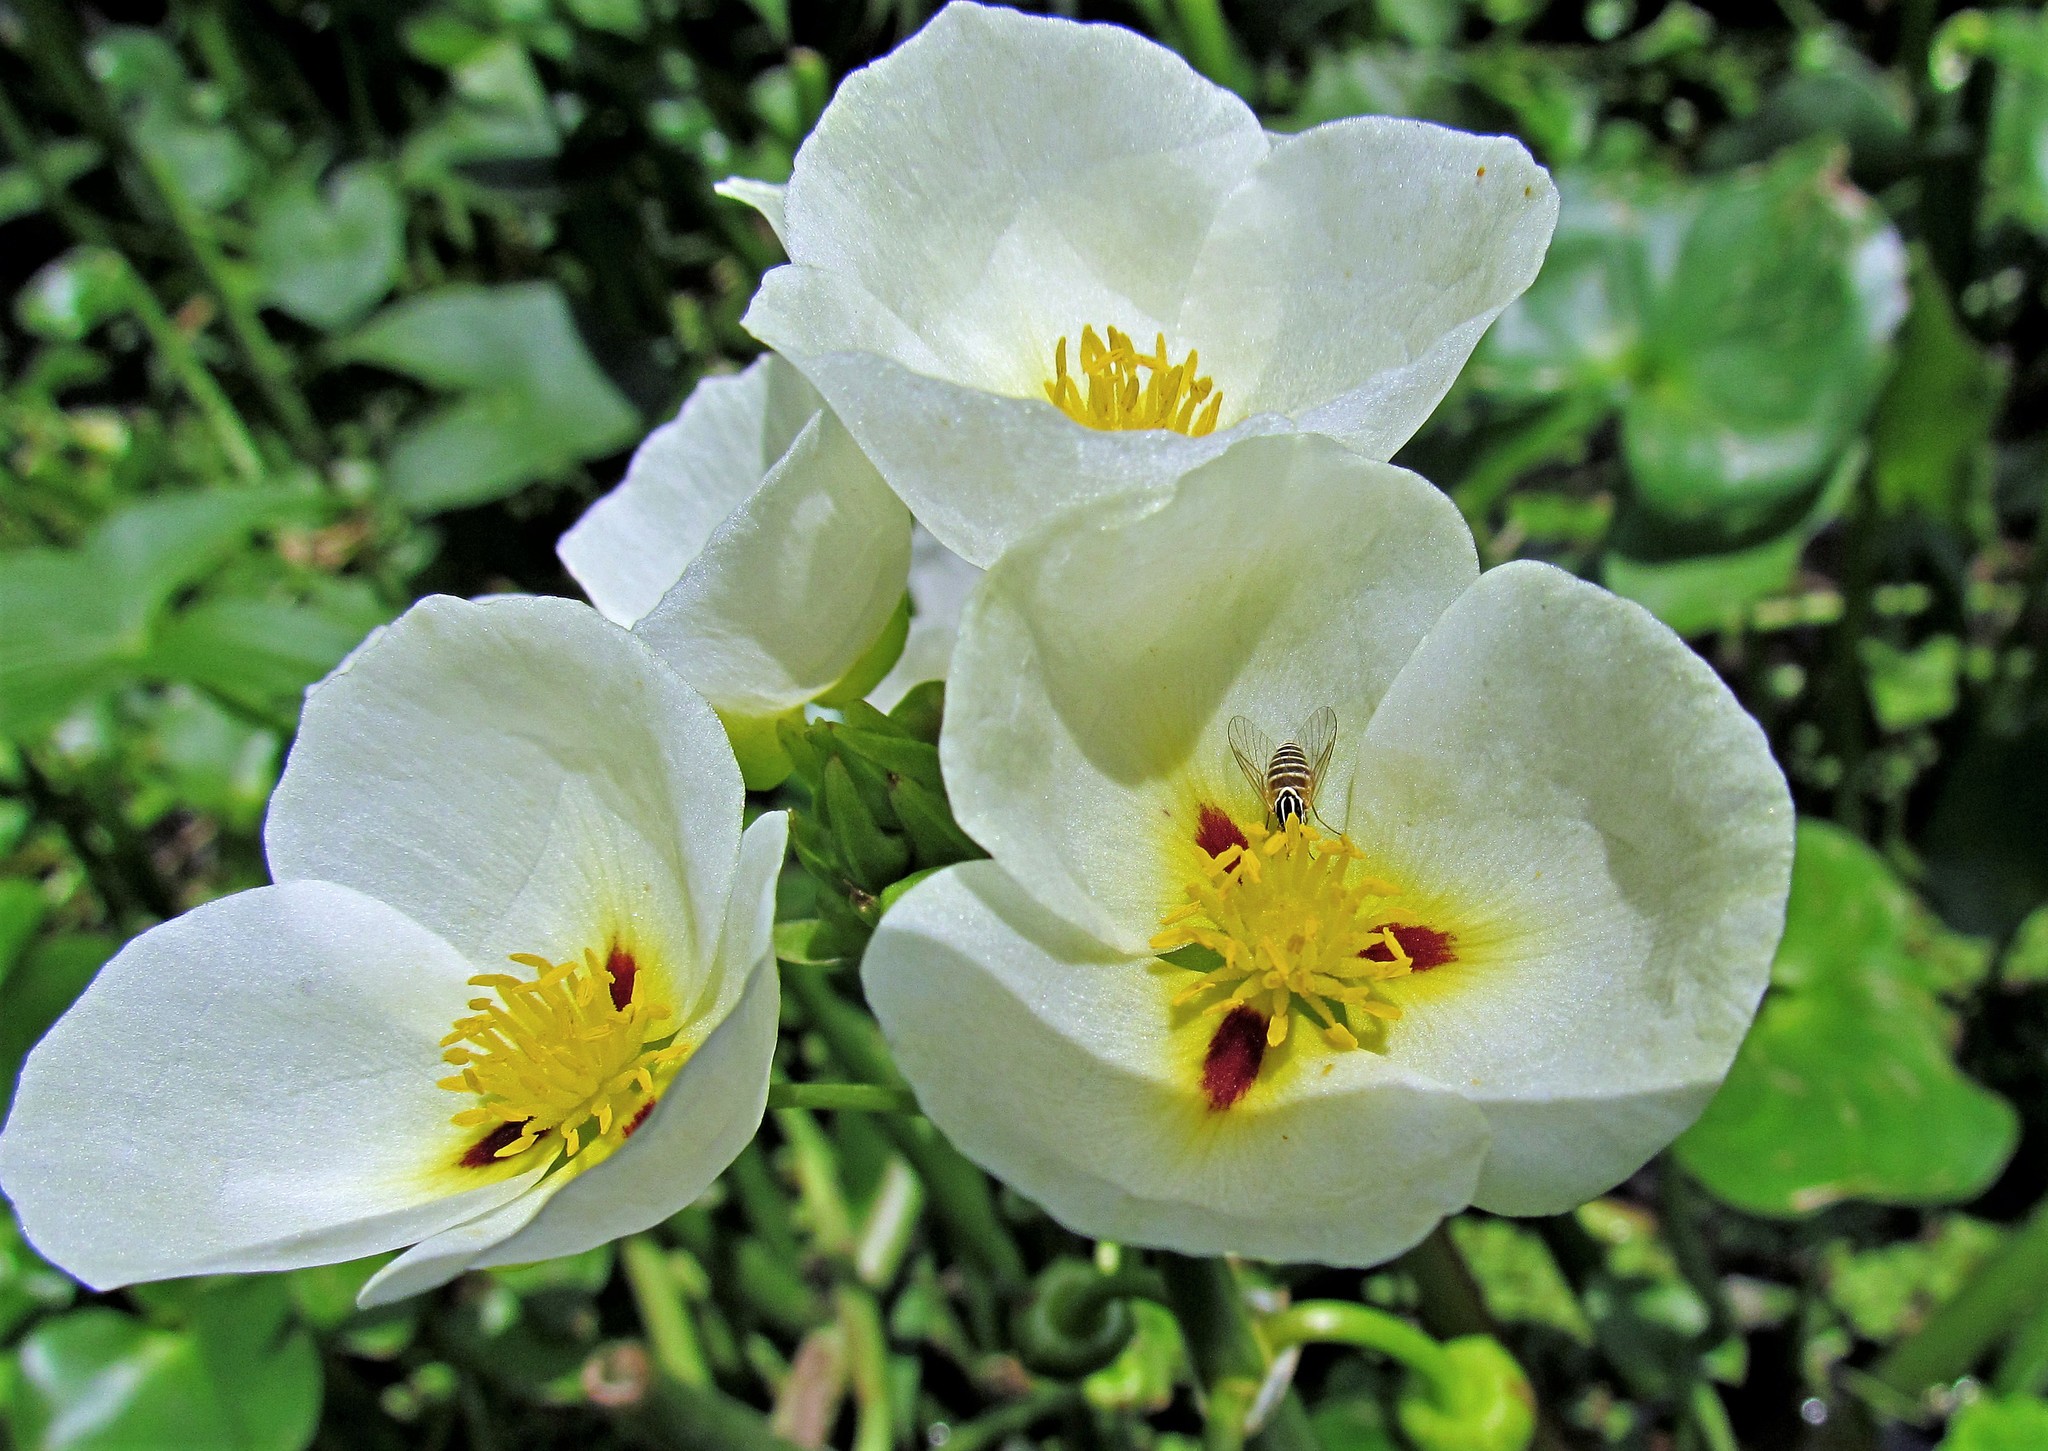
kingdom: Plantae
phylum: Tracheophyta
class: Liliopsida
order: Alismatales
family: Alismataceae
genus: Sagittaria
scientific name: Sagittaria montevidensis
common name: Giant arrowhead
